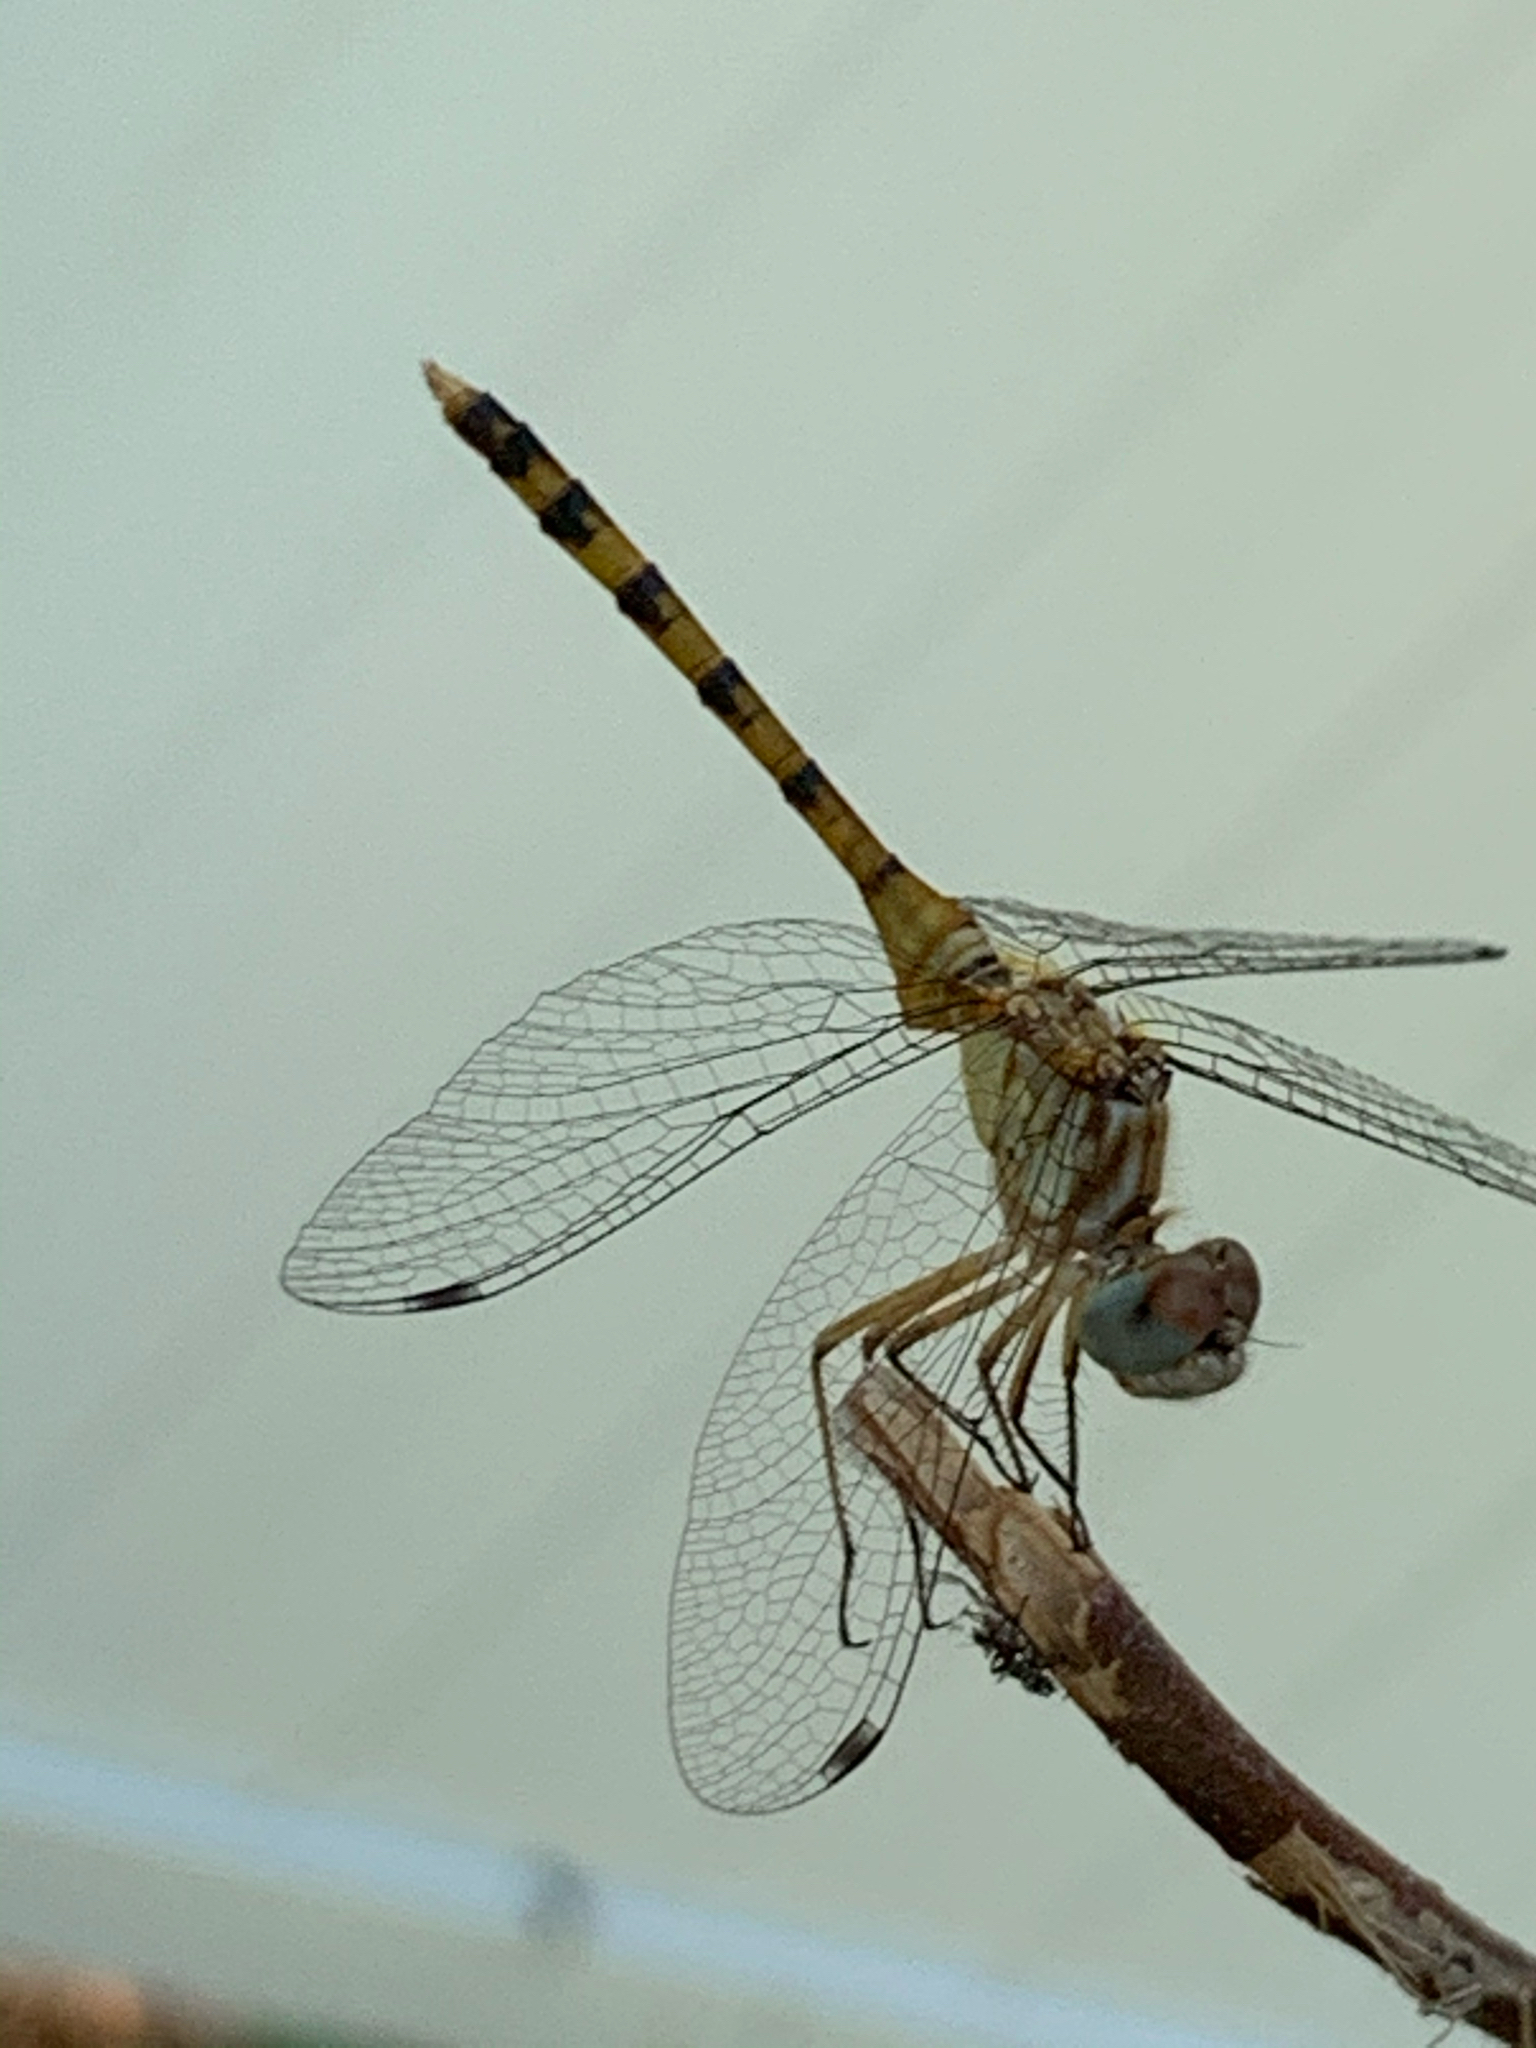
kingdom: Animalia
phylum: Arthropoda
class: Insecta
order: Odonata
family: Libellulidae
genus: Sympetrum
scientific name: Sympetrum ambiguum
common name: Blue-faced meadowhawk
